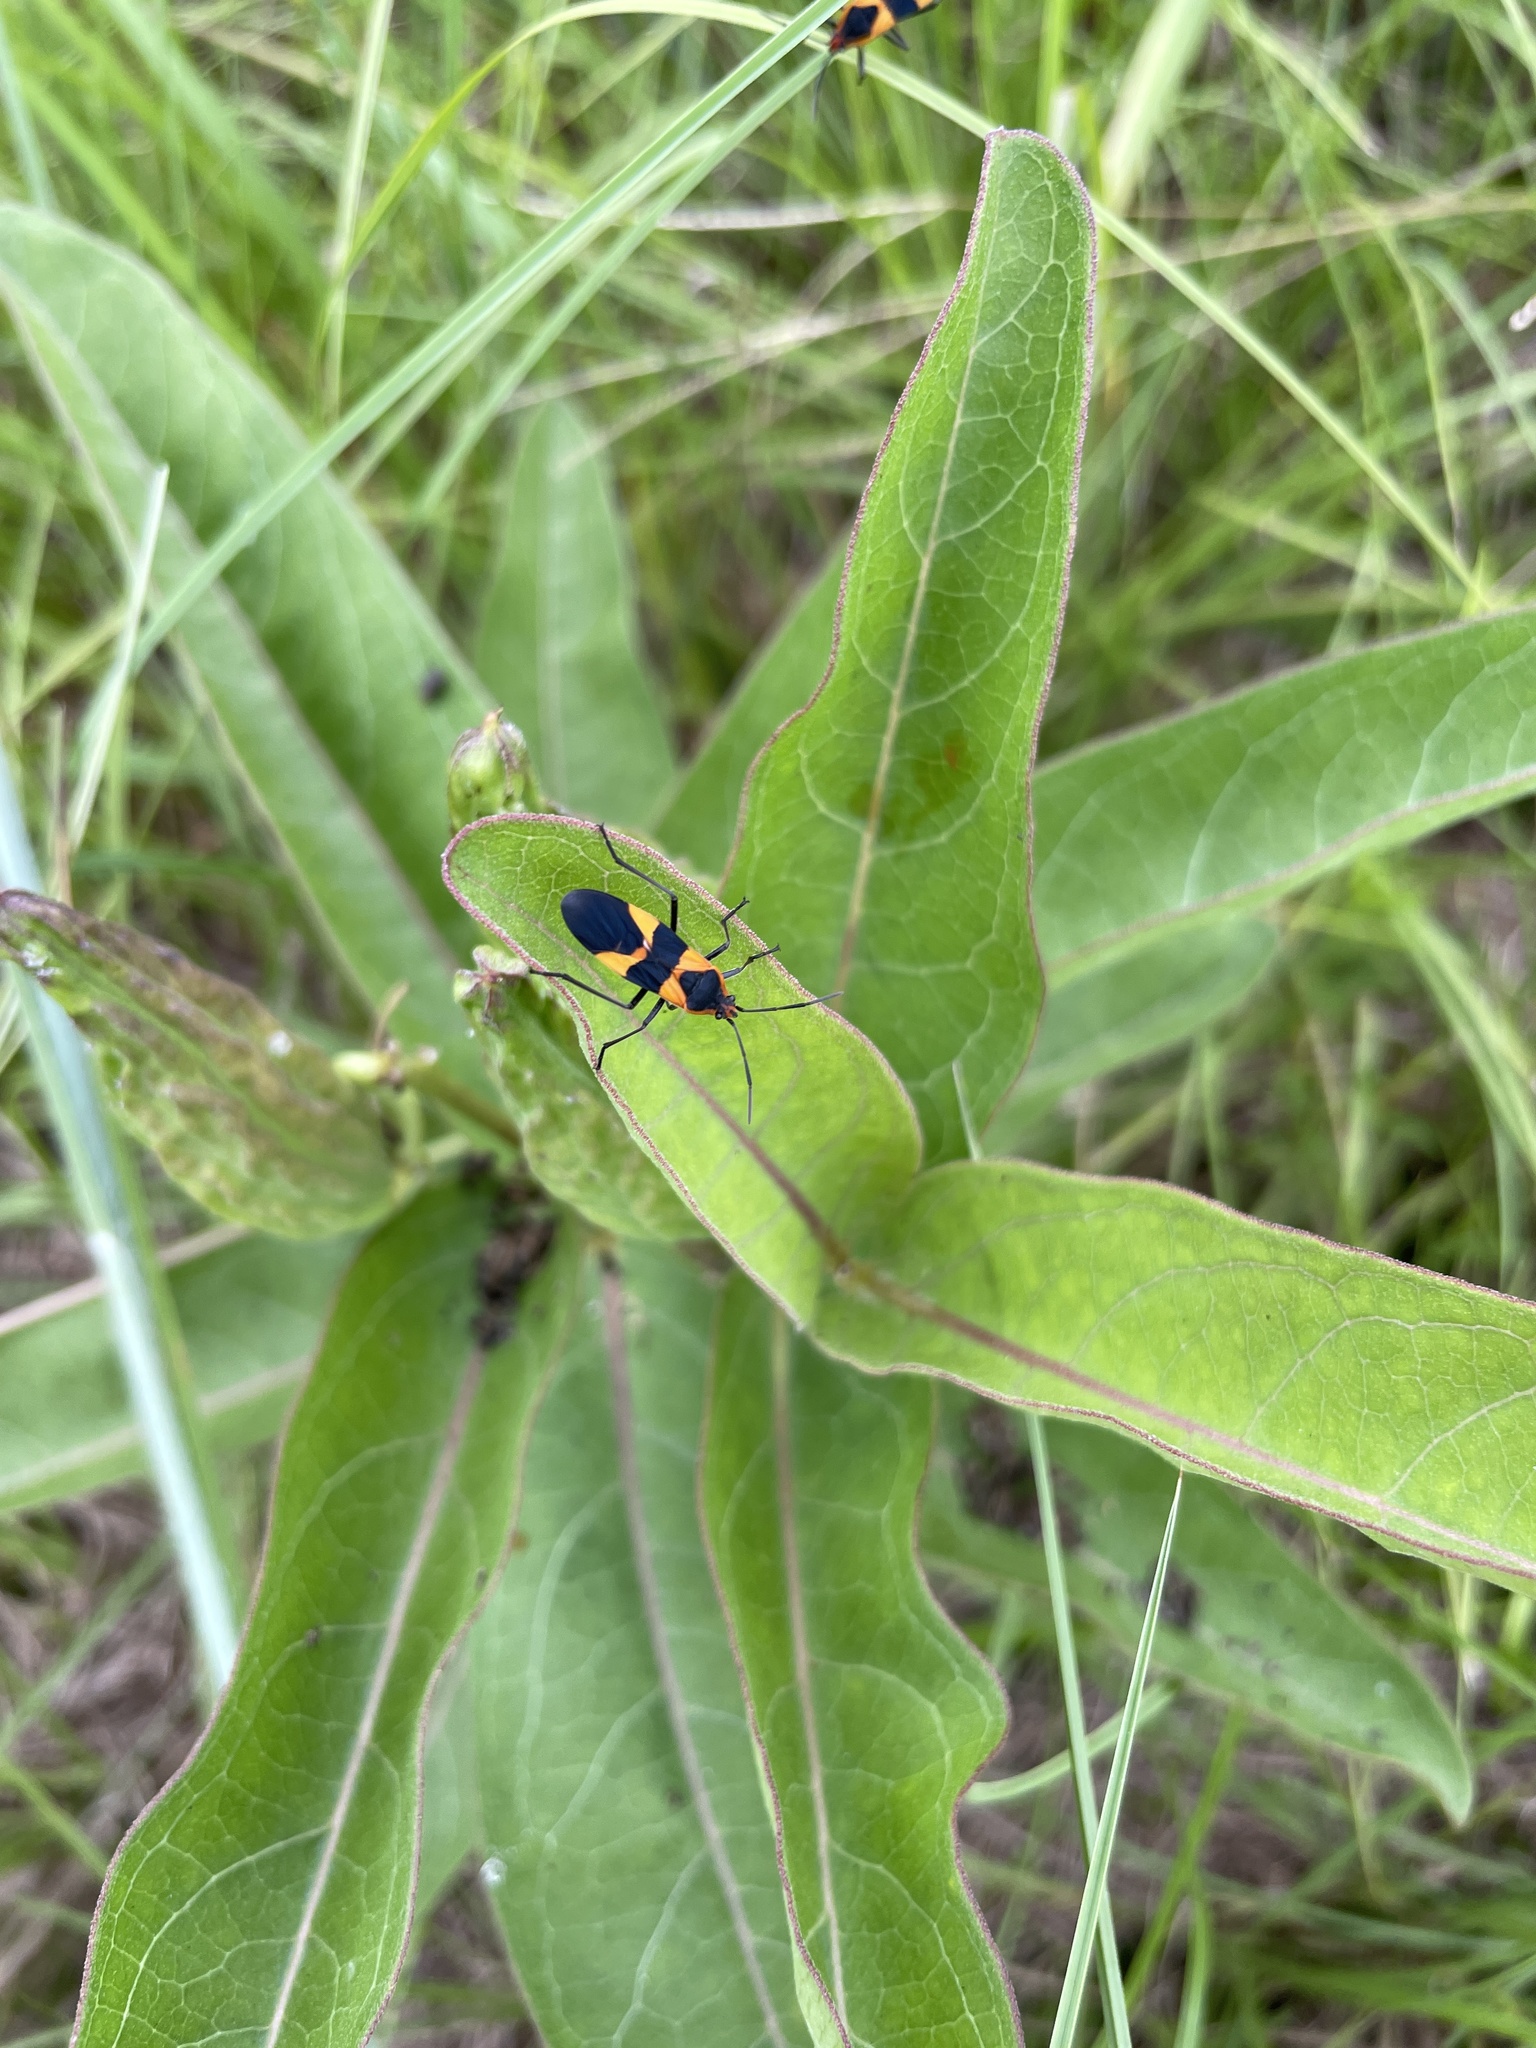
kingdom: Animalia
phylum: Arthropoda
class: Insecta
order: Hemiptera
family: Lygaeidae
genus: Oncopeltus
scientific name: Oncopeltus fasciatus
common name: Large milkweed bug
